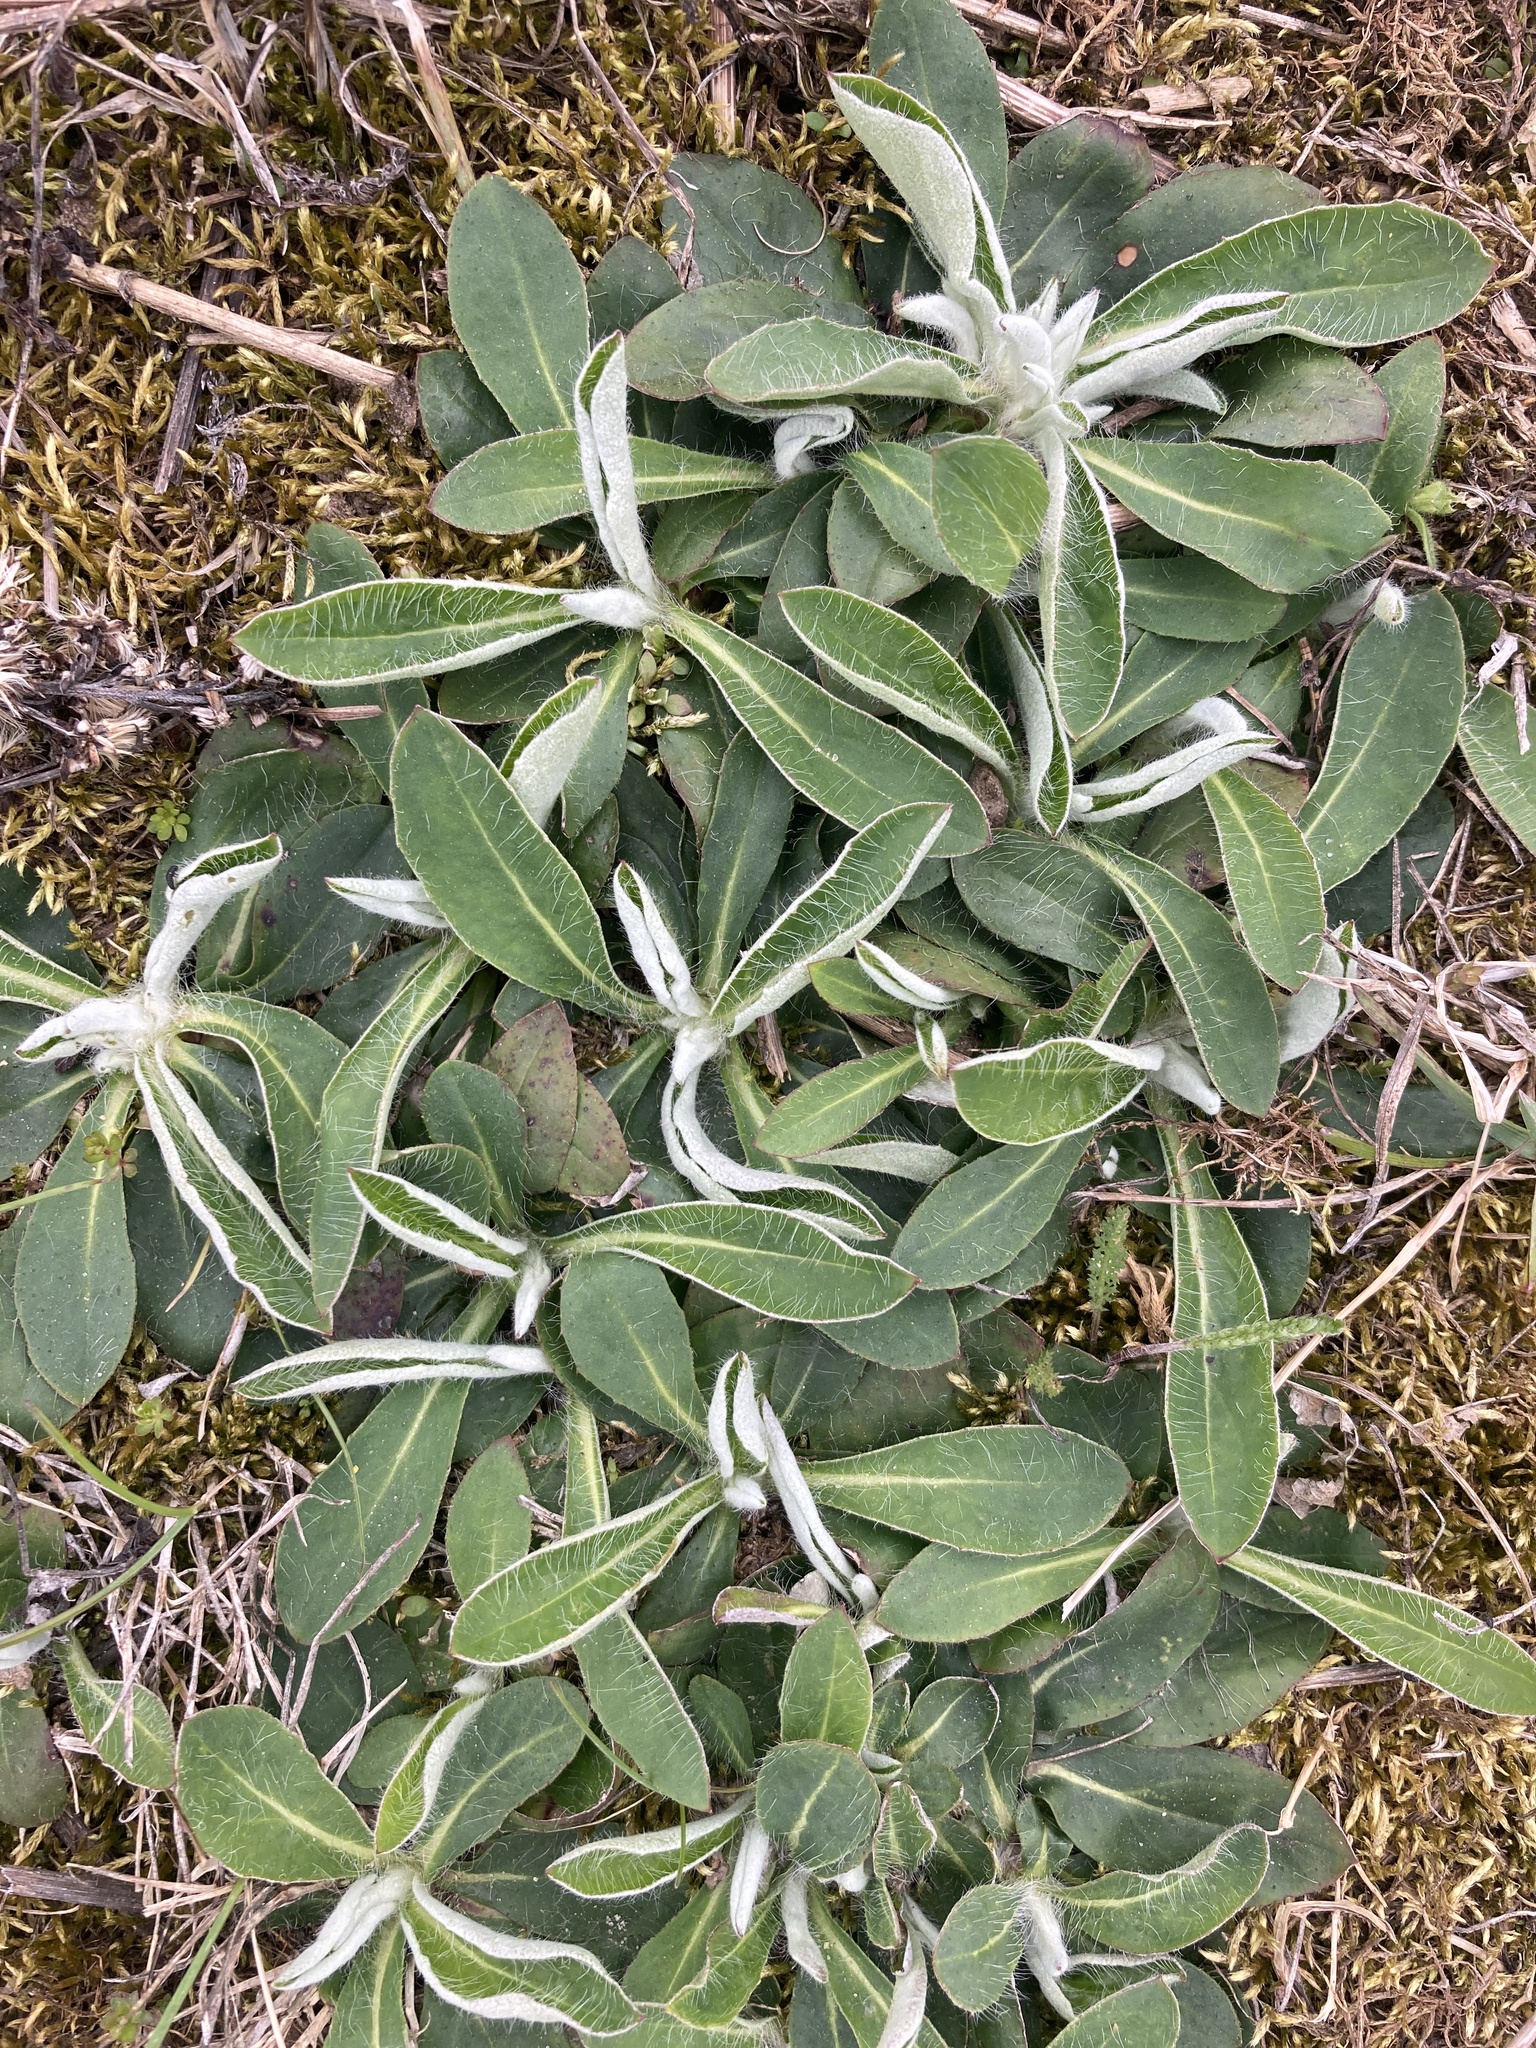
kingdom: Plantae
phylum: Tracheophyta
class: Magnoliopsida
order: Asterales
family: Asteraceae
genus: Pilosella
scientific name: Pilosella officinarum
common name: Mouse-ear hawkweed
